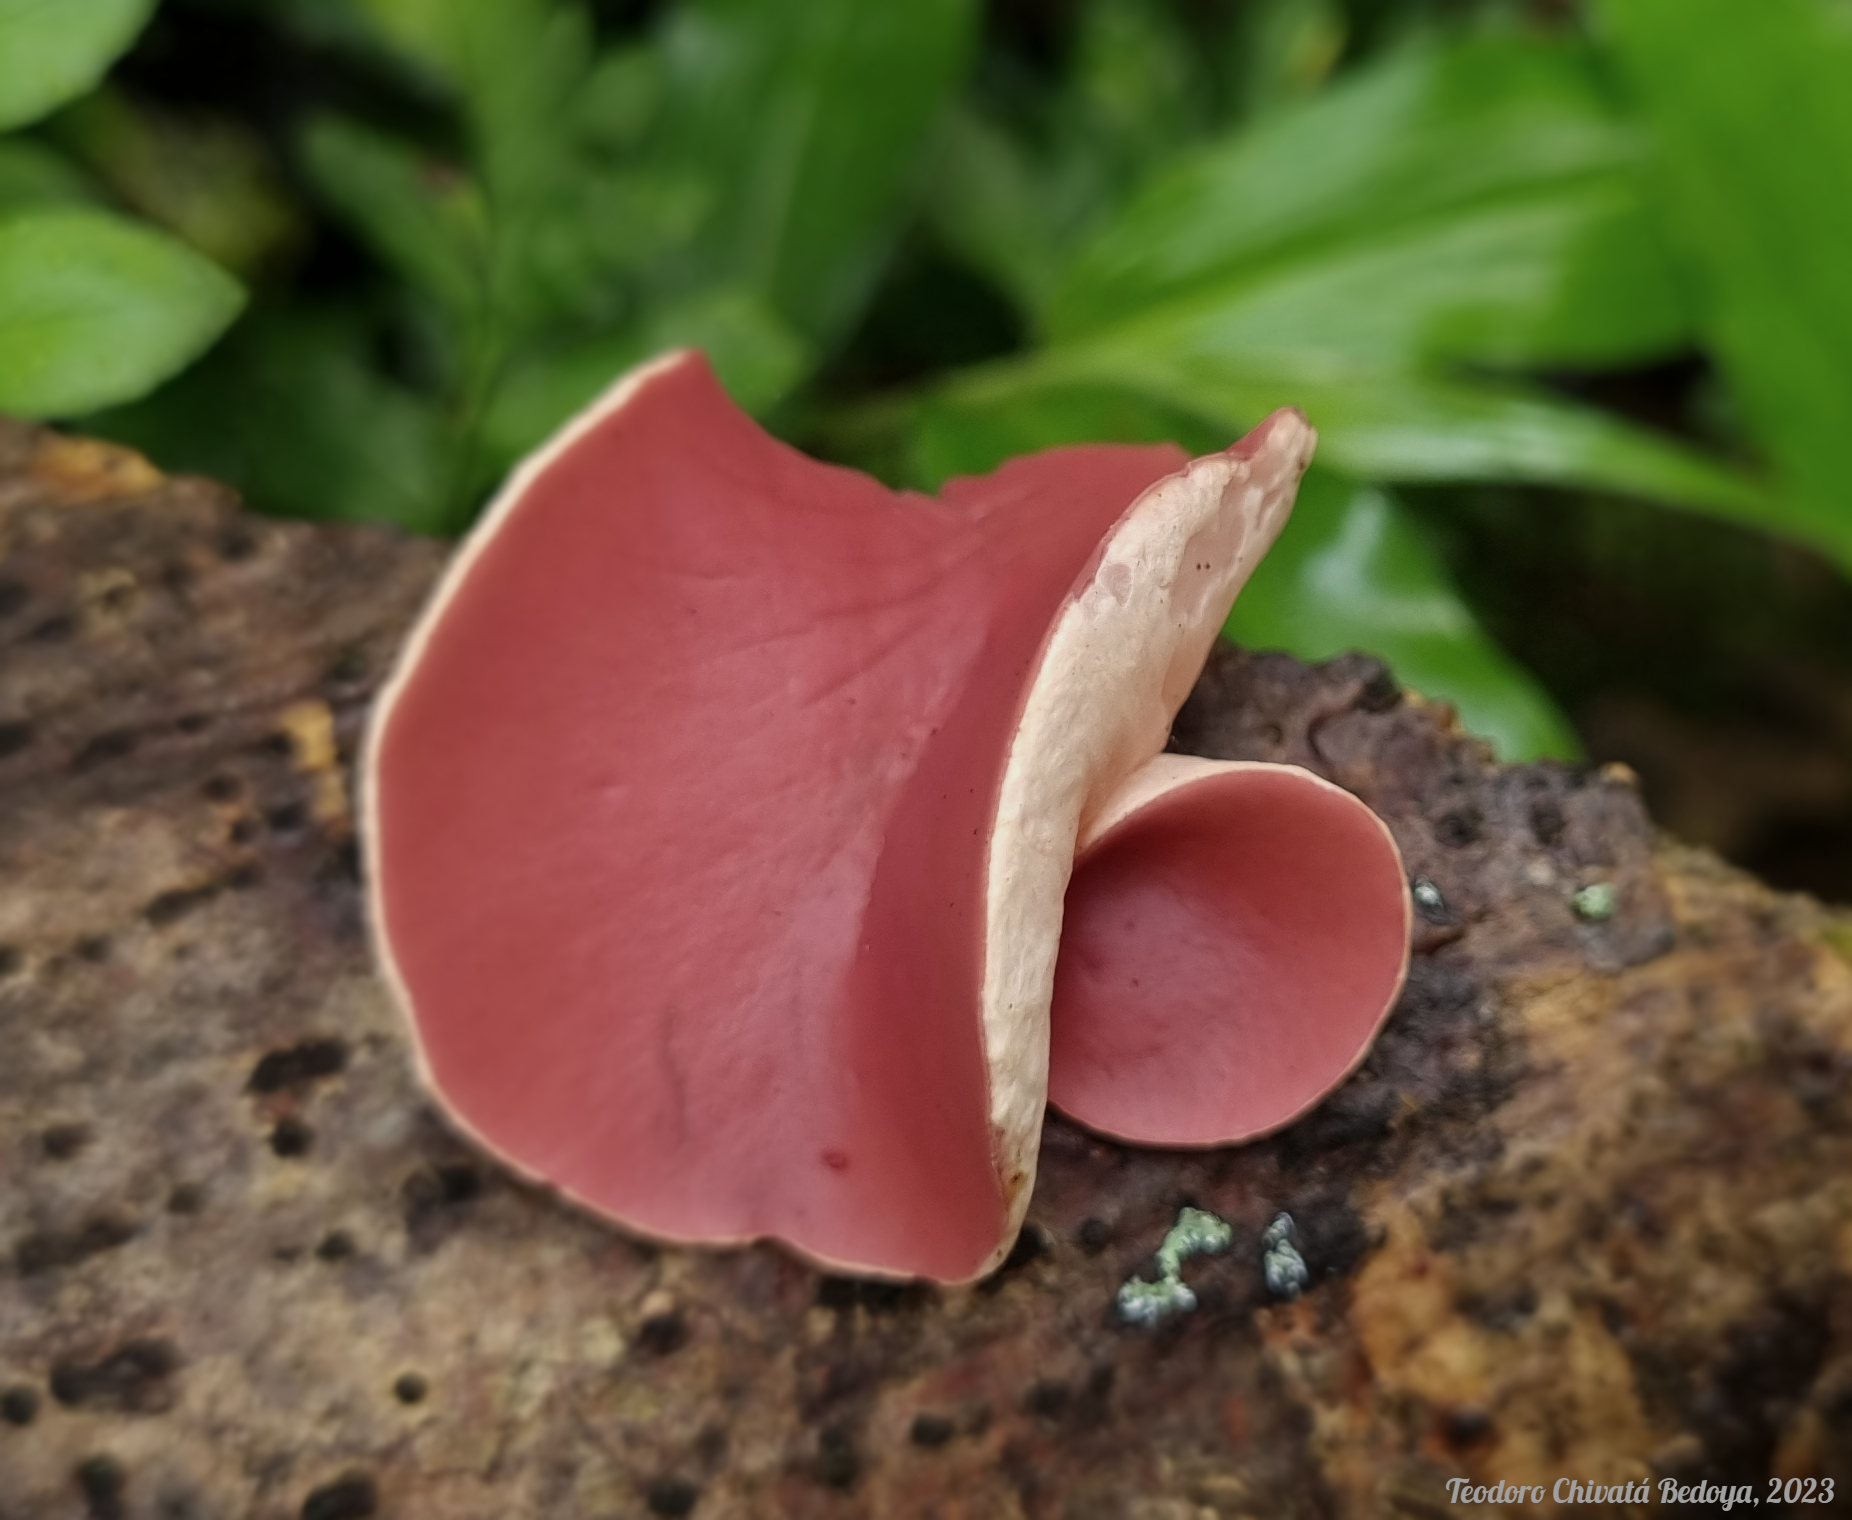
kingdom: Fungi
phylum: Ascomycota
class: Pezizomycetes
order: Pezizales
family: Sarcoscyphaceae
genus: Phillipsia
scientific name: Phillipsia domingensis
